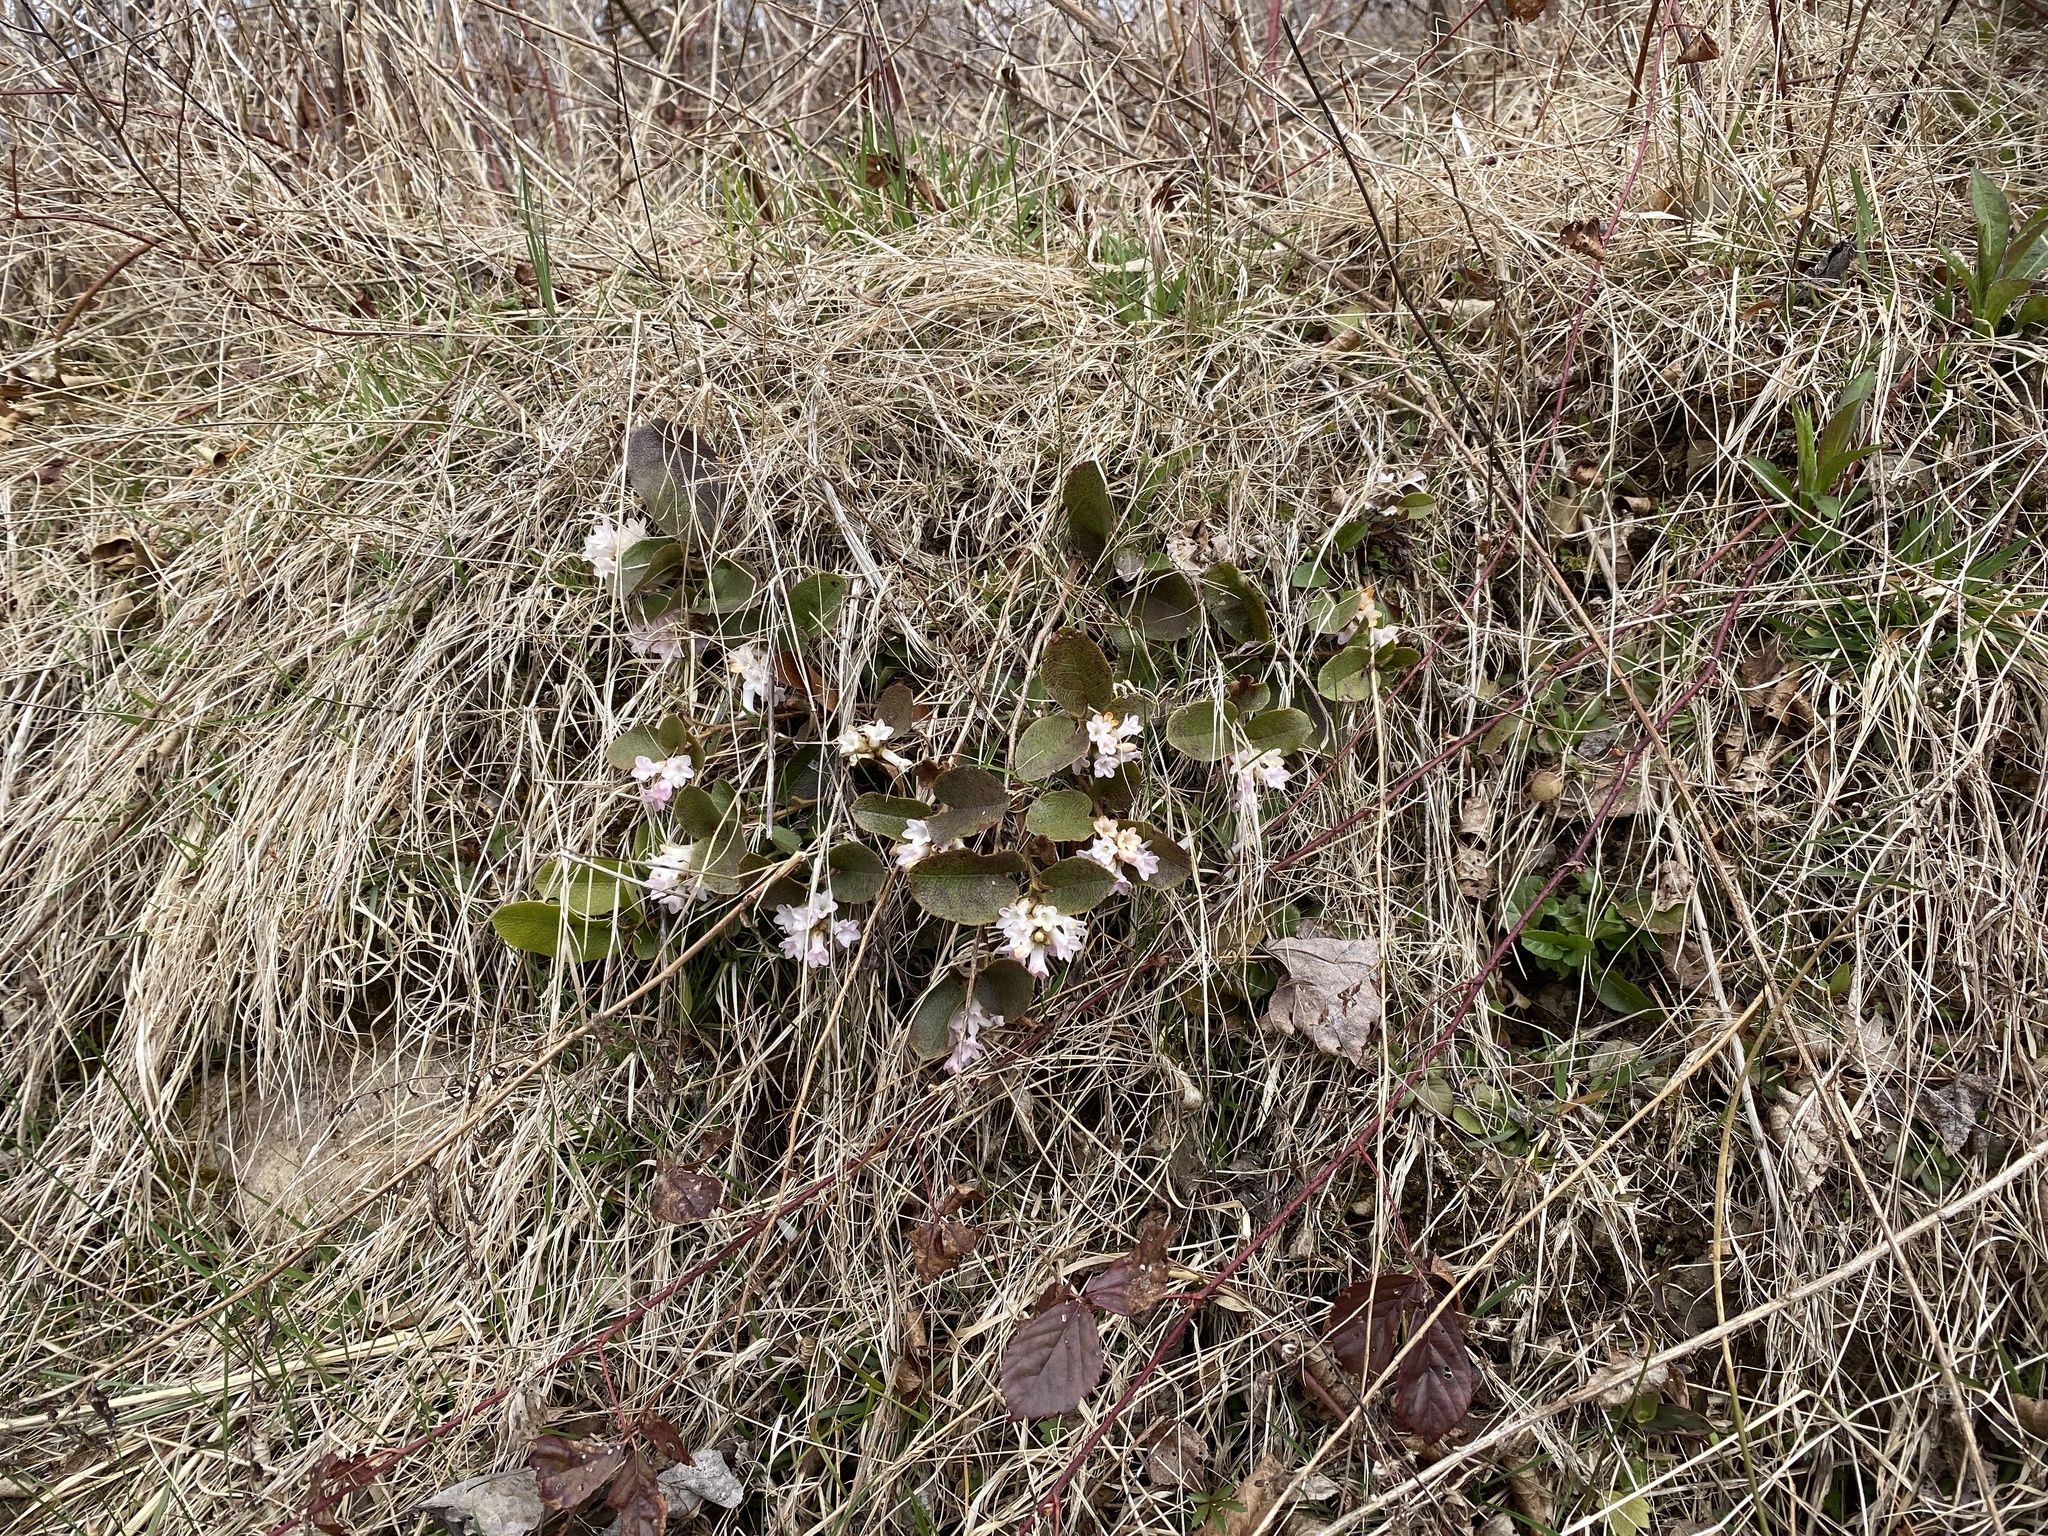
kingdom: Plantae
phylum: Tracheophyta
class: Magnoliopsida
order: Ericales
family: Ericaceae
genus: Epigaea
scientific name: Epigaea repens
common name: Gravelroot
